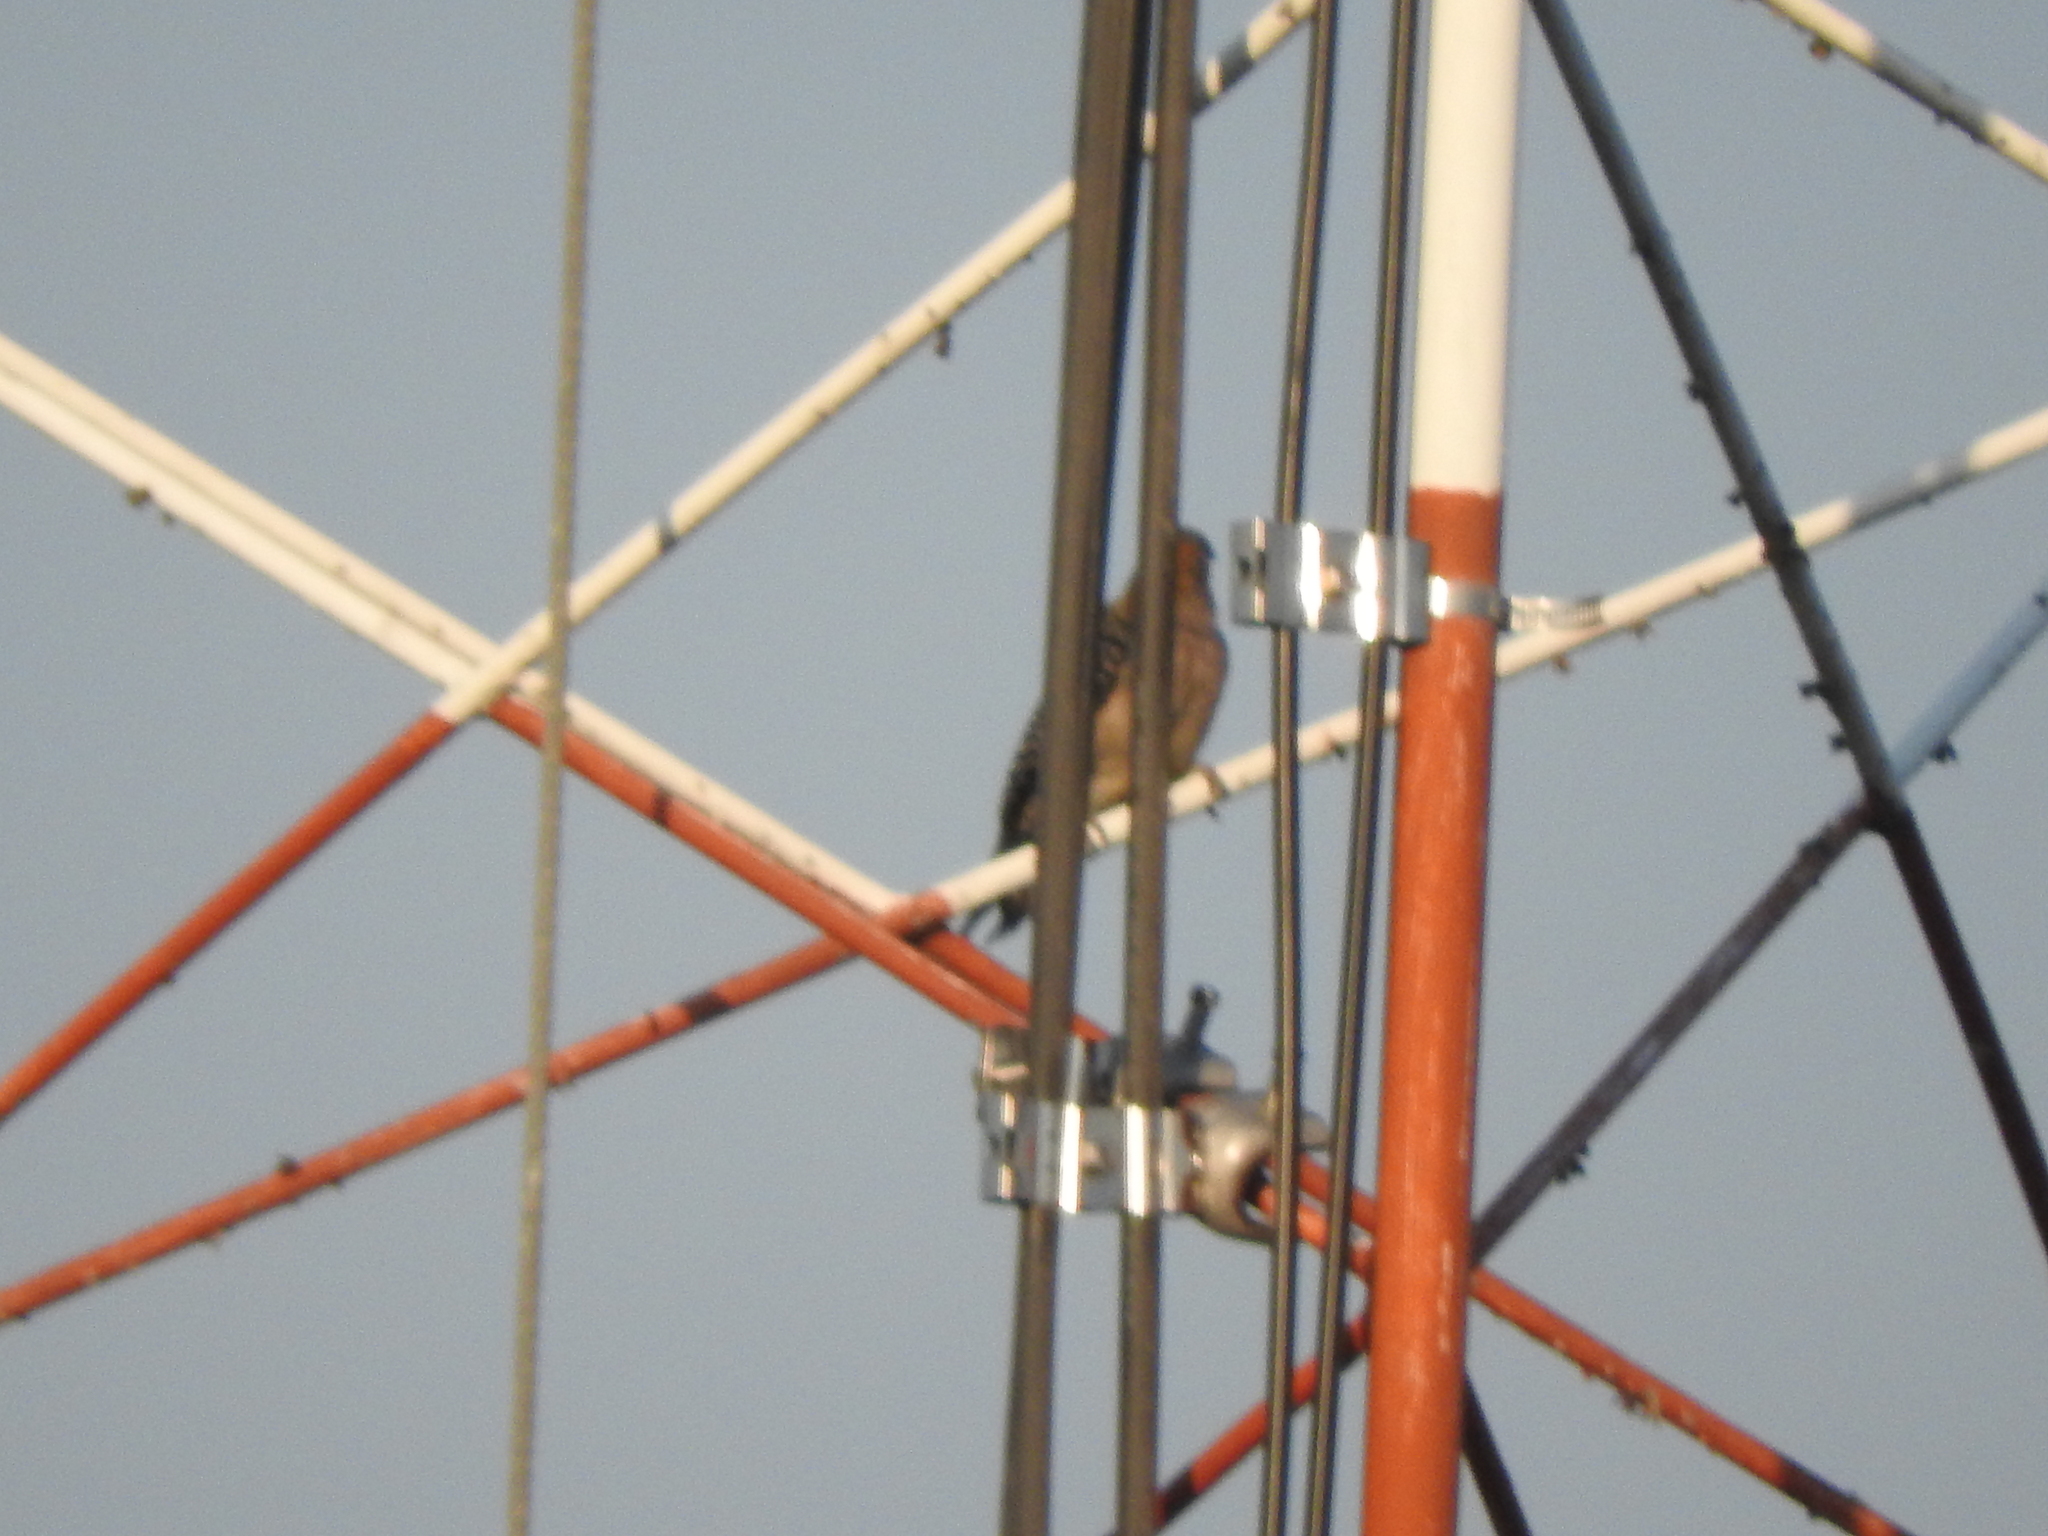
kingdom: Animalia
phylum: Chordata
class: Aves
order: Piciformes
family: Picidae
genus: Melanerpes
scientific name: Melanerpes aurifrons
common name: Golden-fronted woodpecker
